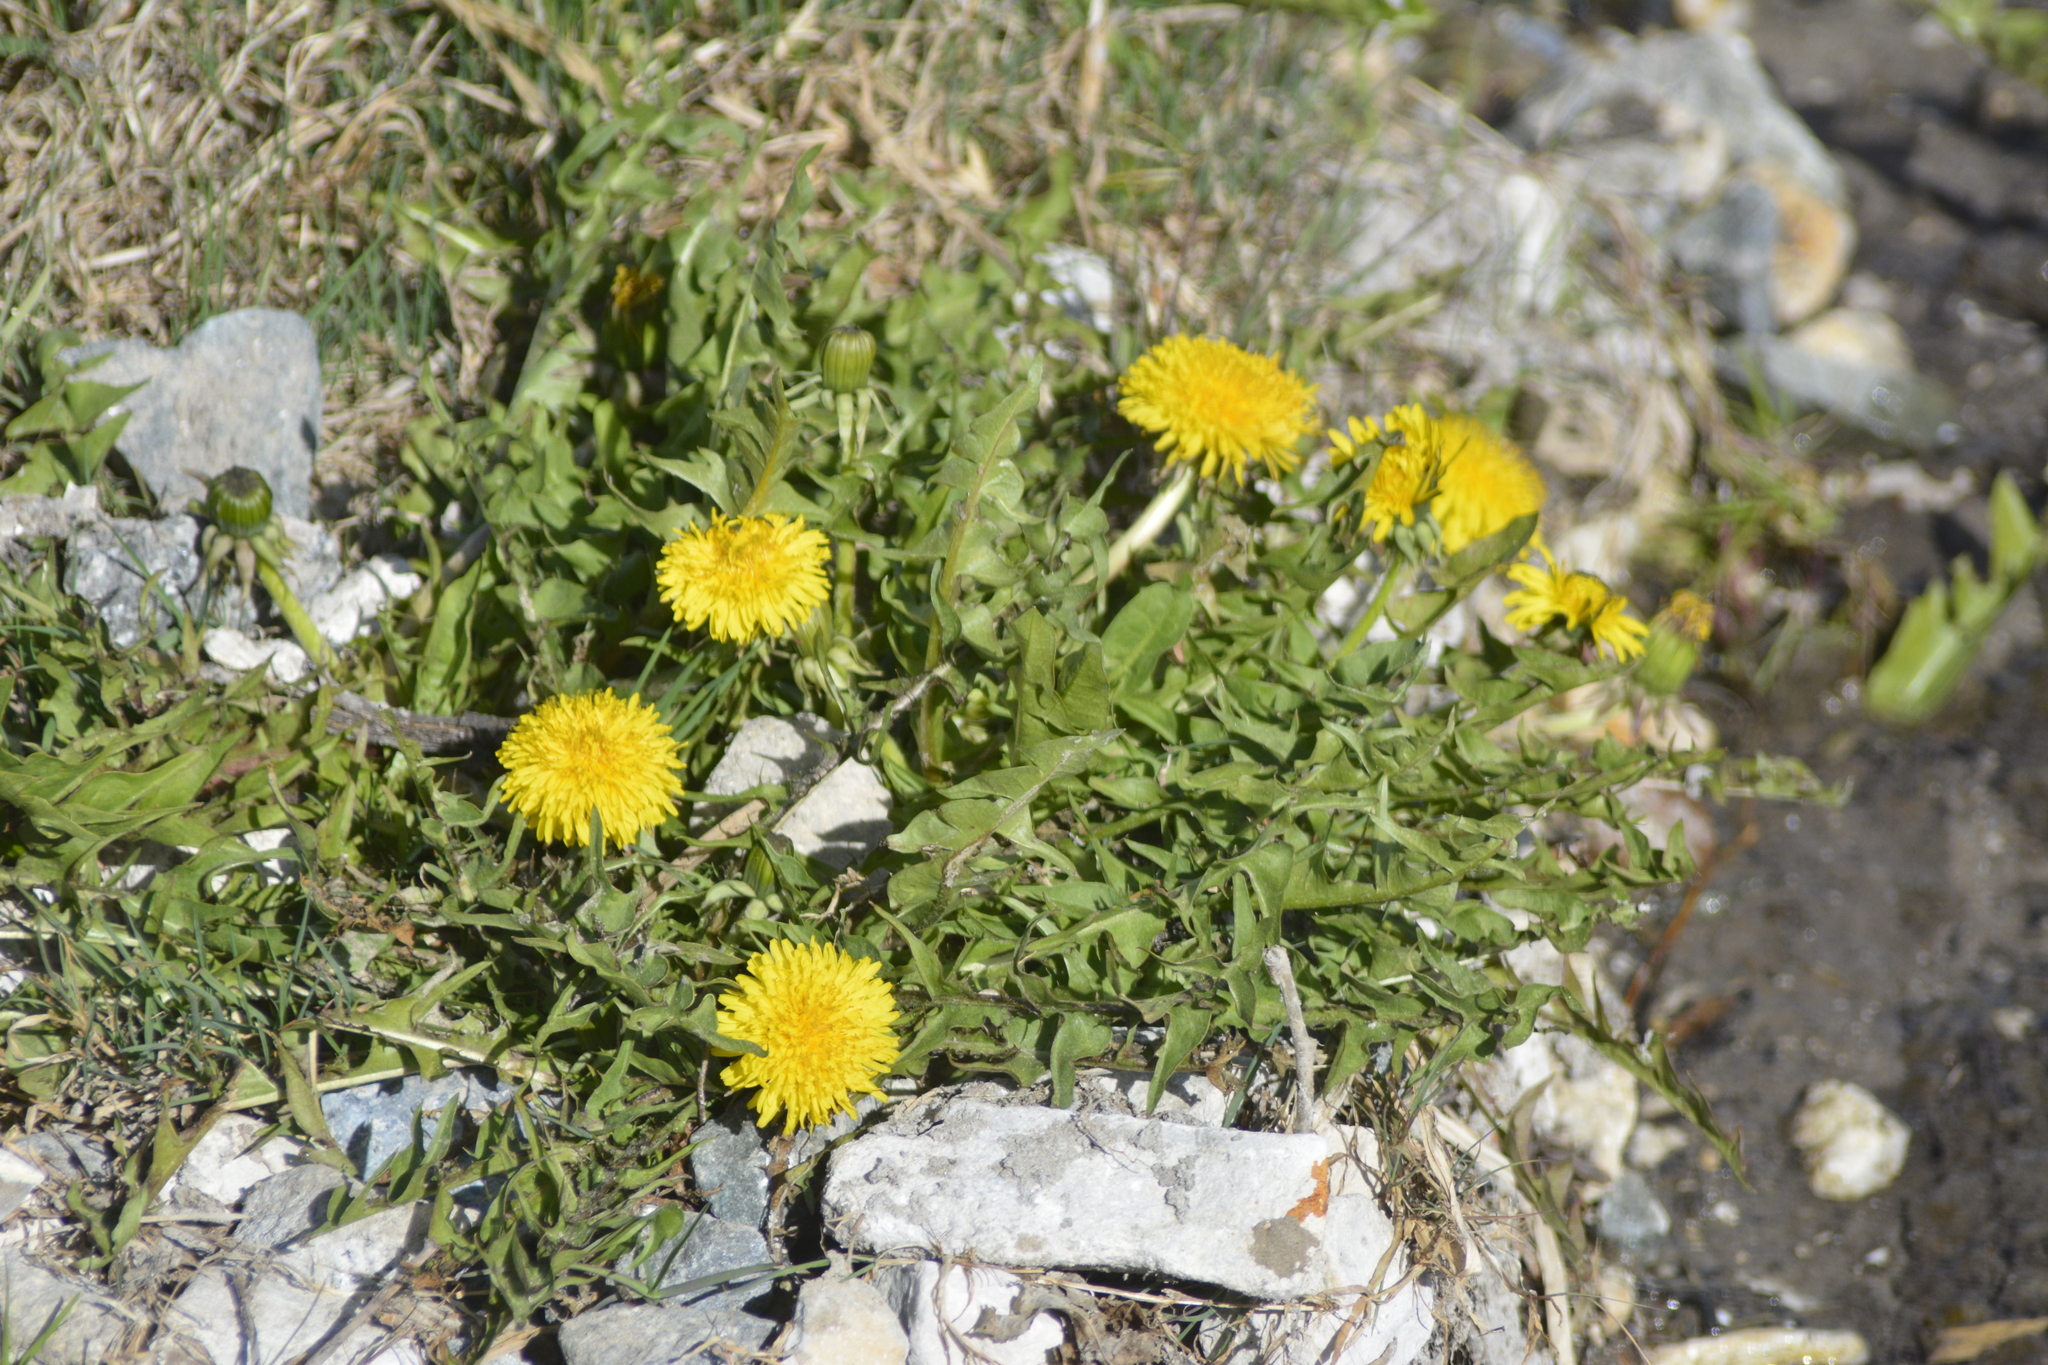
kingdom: Plantae
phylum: Tracheophyta
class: Magnoliopsida
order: Asterales
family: Asteraceae
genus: Taraxacum
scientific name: Taraxacum officinale
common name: Common dandelion
